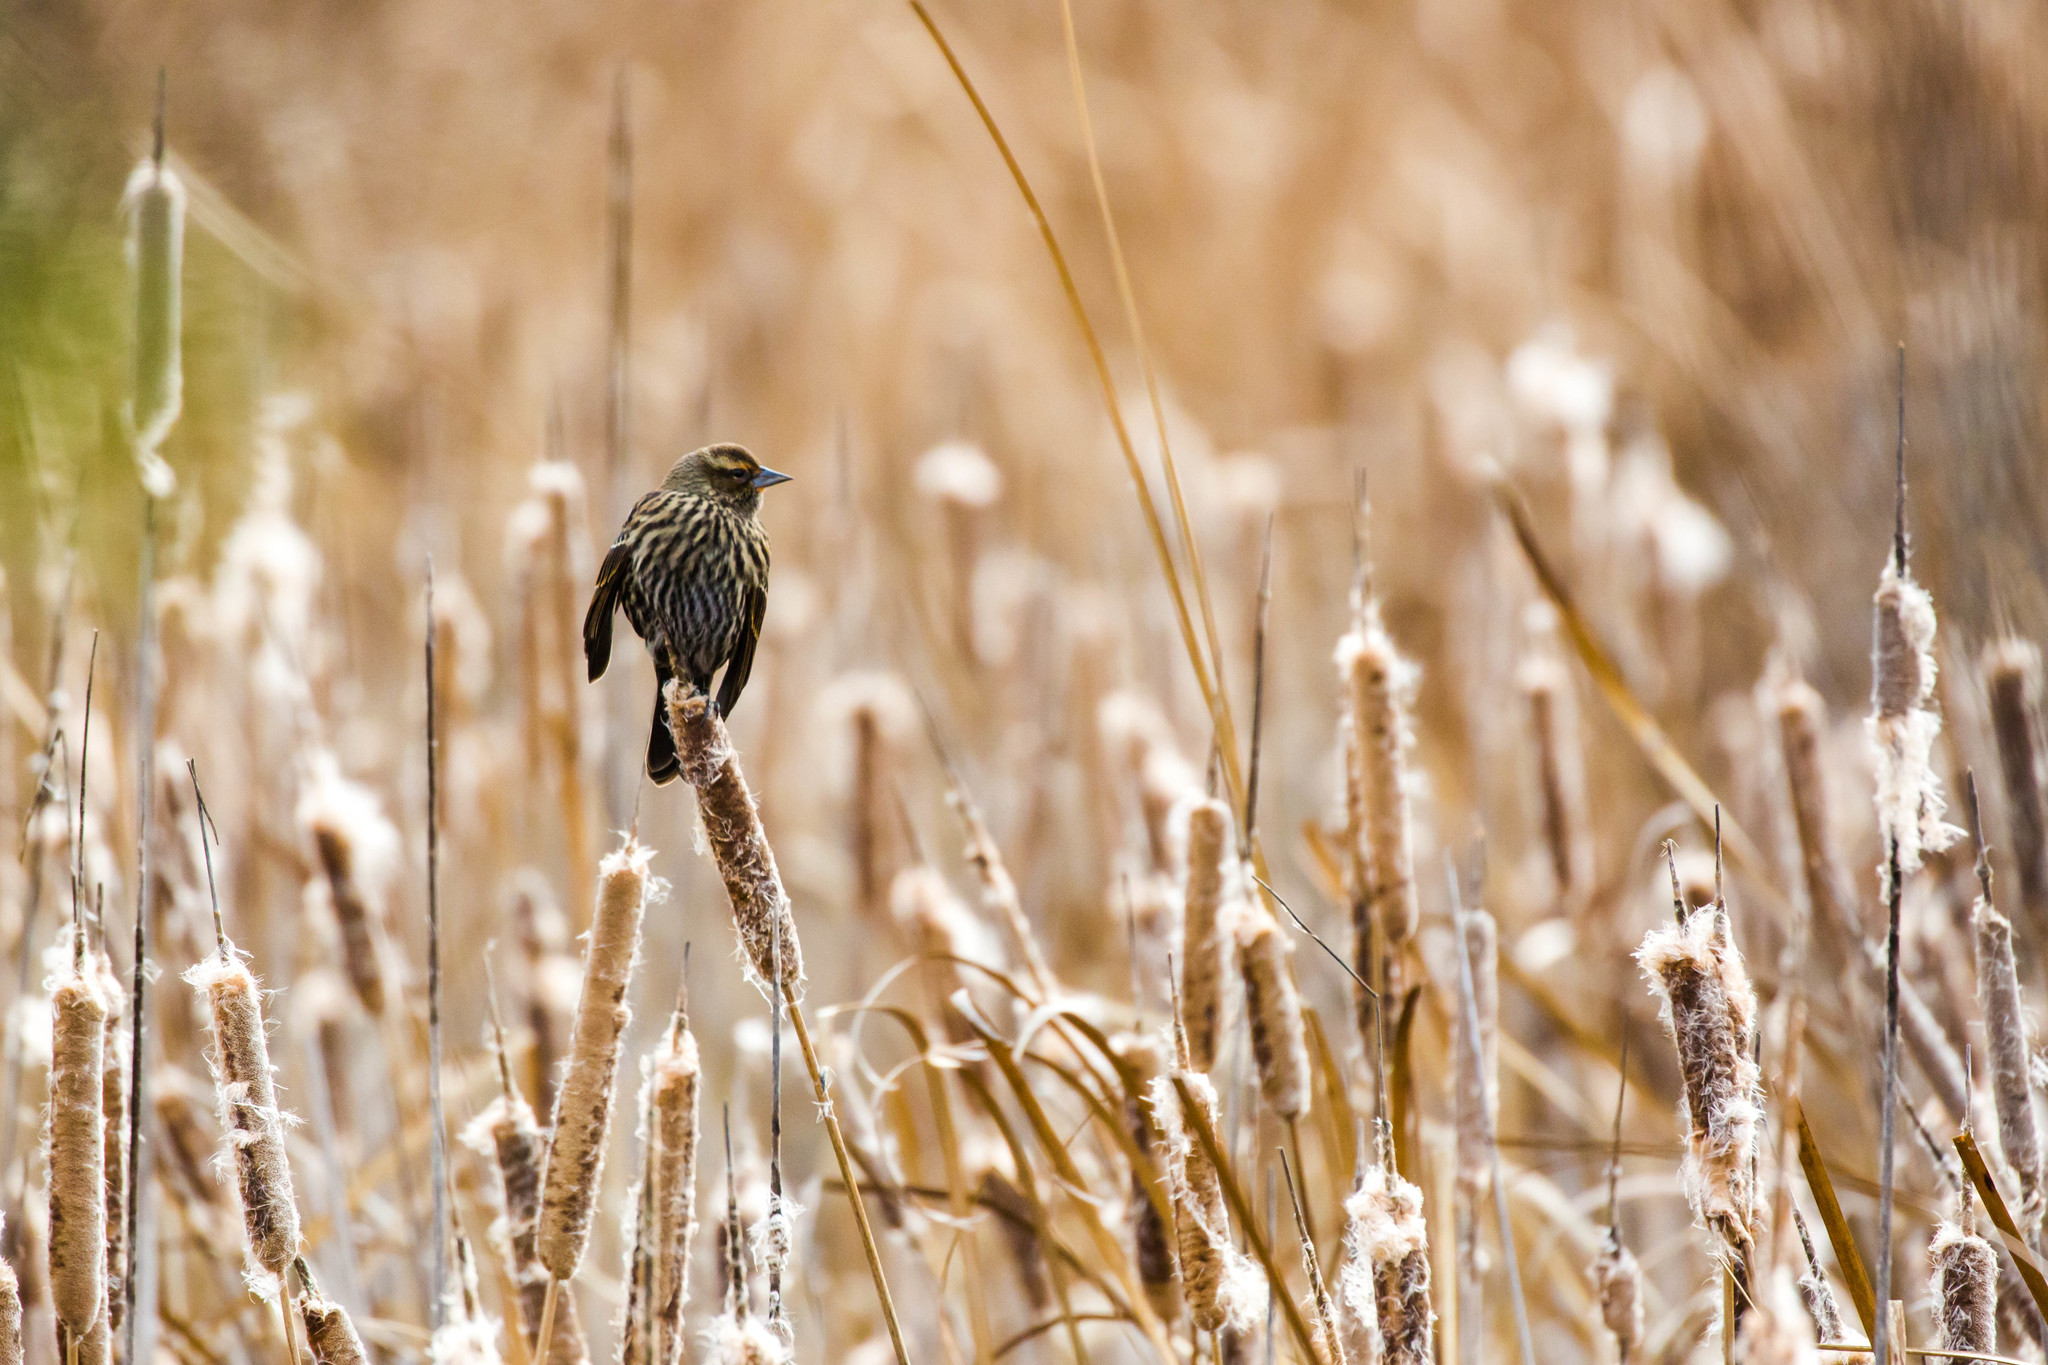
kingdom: Animalia
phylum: Chordata
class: Aves
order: Passeriformes
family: Icteridae
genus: Agelaius
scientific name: Agelaius phoeniceus
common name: Red-winged blackbird
